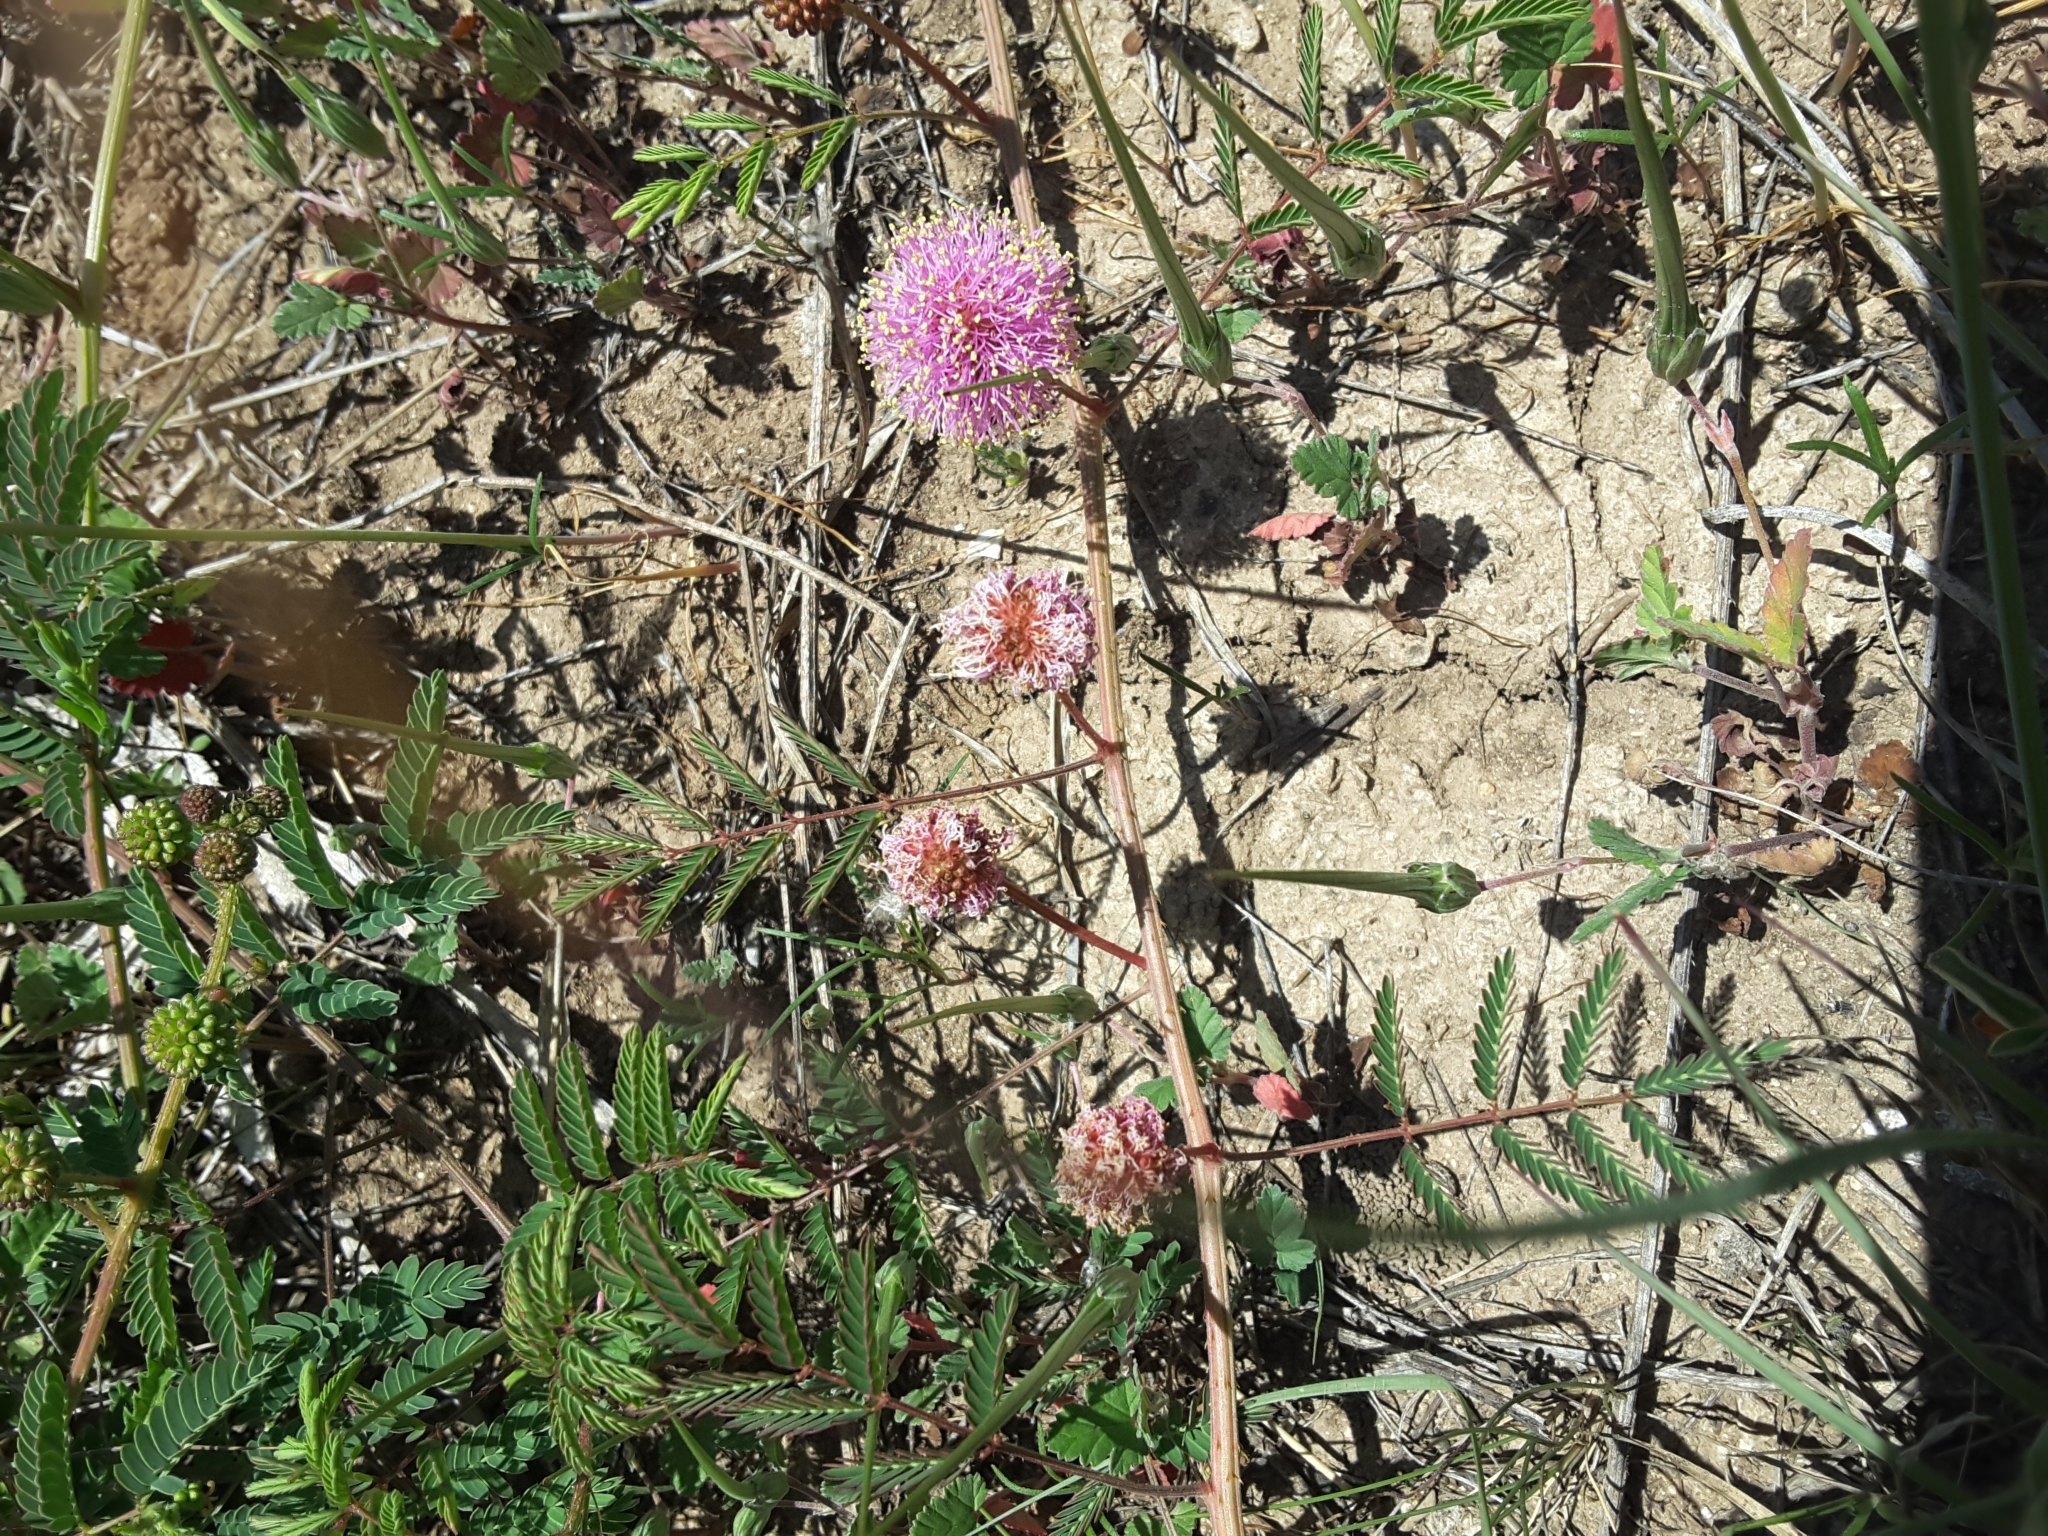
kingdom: Plantae
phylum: Tracheophyta
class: Magnoliopsida
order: Fabales
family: Fabaceae
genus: Mimosa
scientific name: Mimosa quadrivalvis
